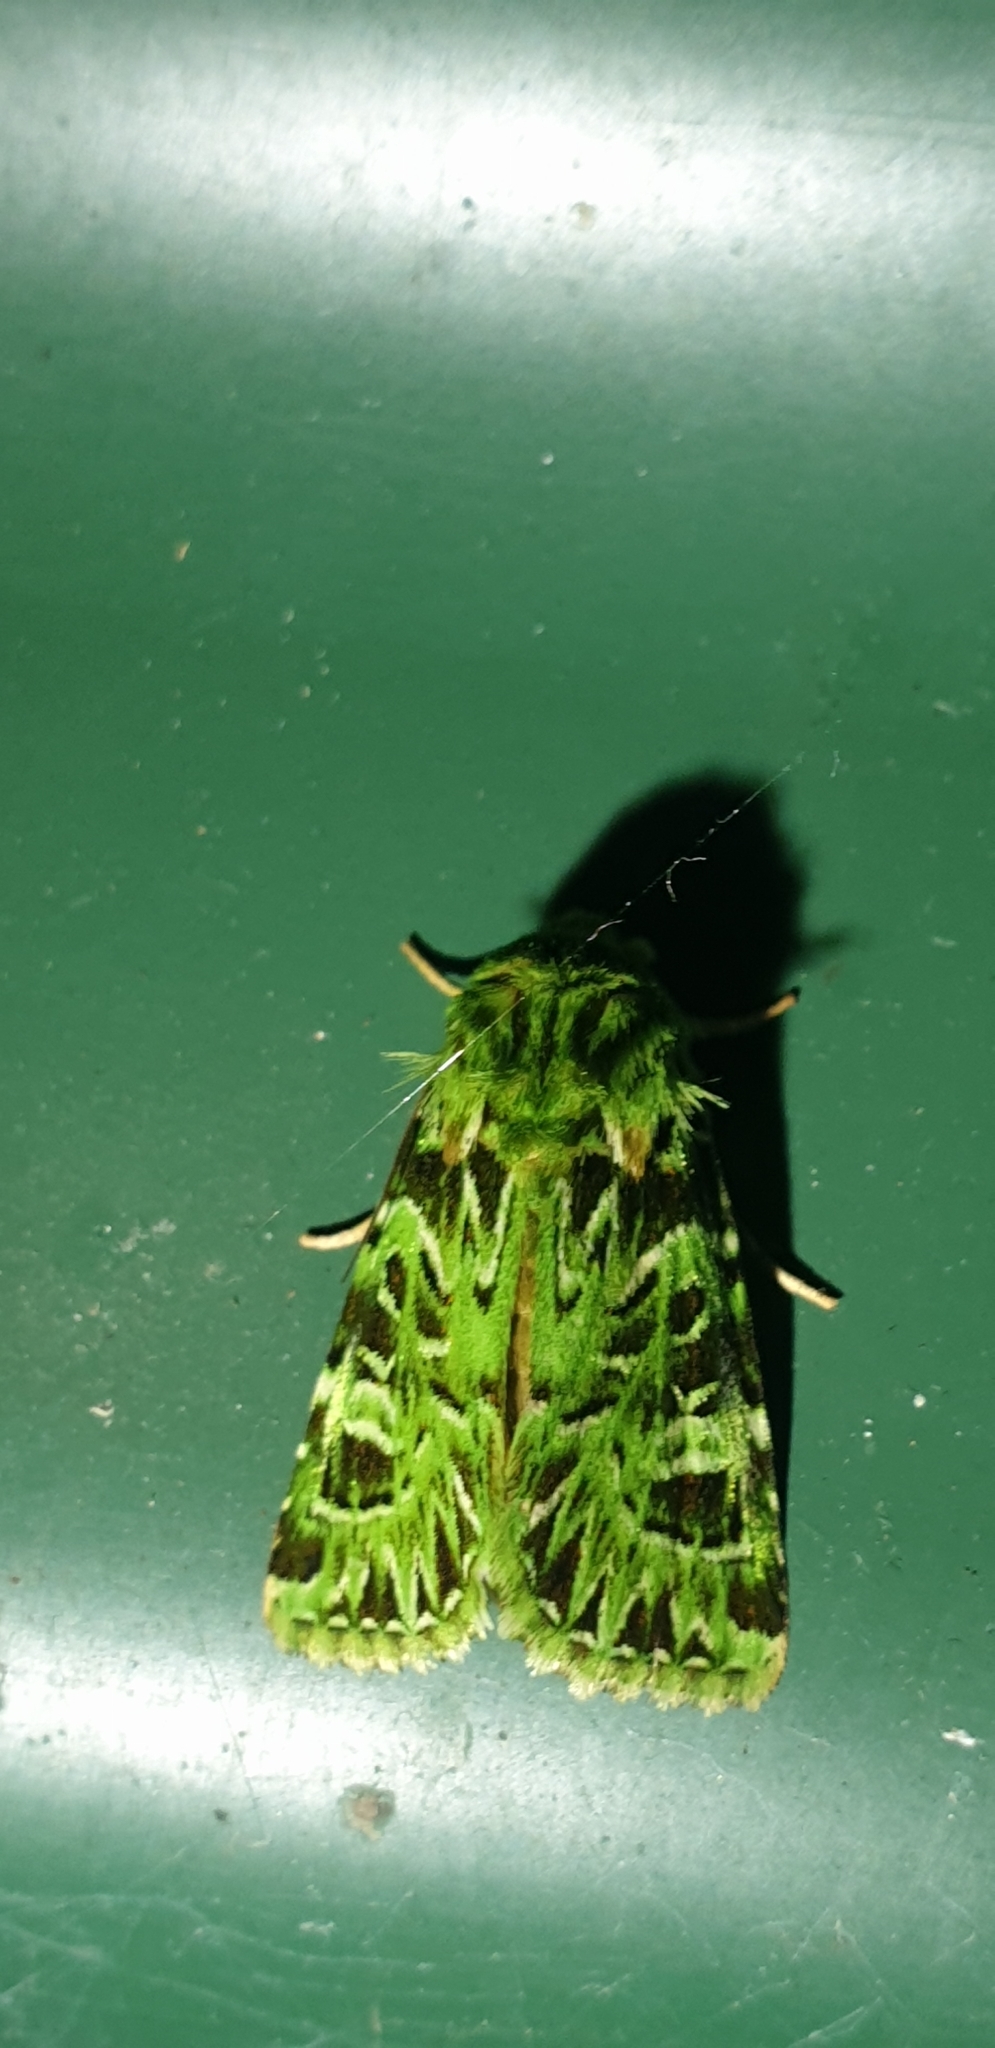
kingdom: Animalia
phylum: Arthropoda
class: Insecta
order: Lepidoptera
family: Noctuidae
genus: Pachythrix
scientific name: Pachythrix hampsoni
